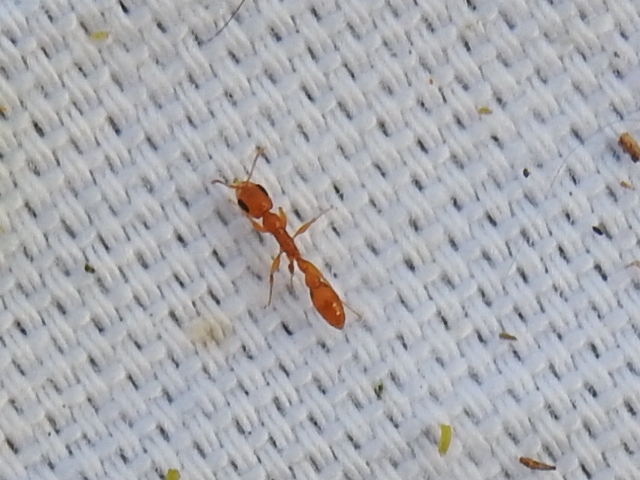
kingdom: Animalia
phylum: Arthropoda
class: Insecta
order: Hymenoptera
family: Formicidae
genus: Pseudomyrmex
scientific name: Pseudomyrmex pallidus
